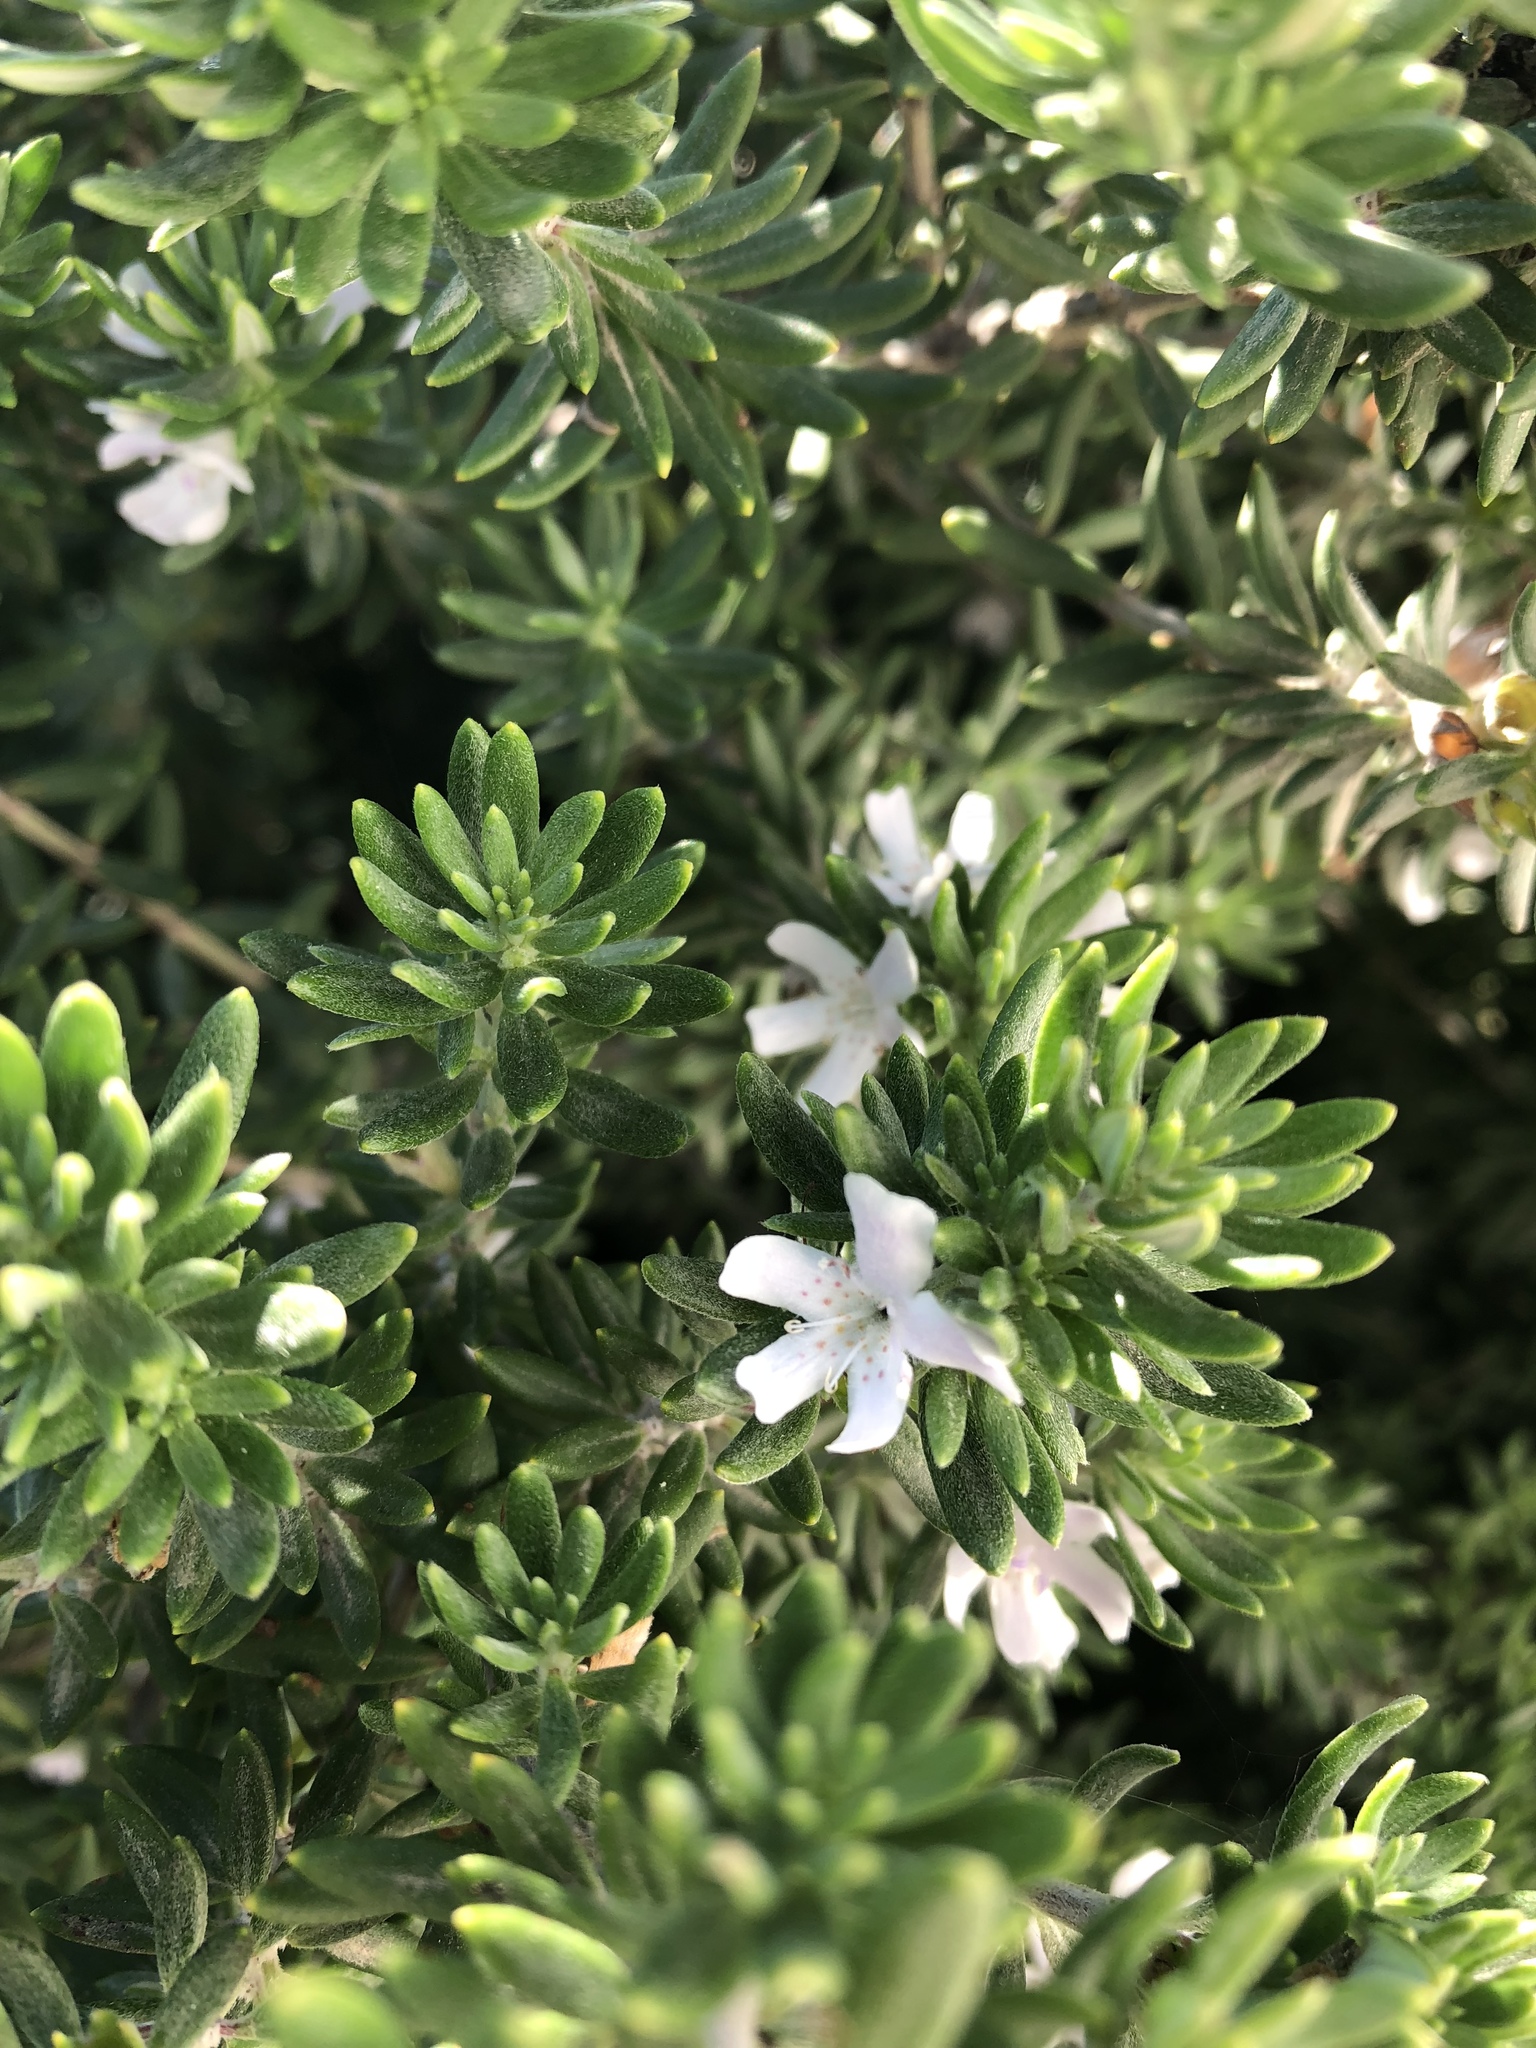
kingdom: Plantae
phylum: Tracheophyta
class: Magnoliopsida
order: Lamiales
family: Lamiaceae
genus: Westringia
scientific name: Westringia fruticosa
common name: Coastal-rosemary
